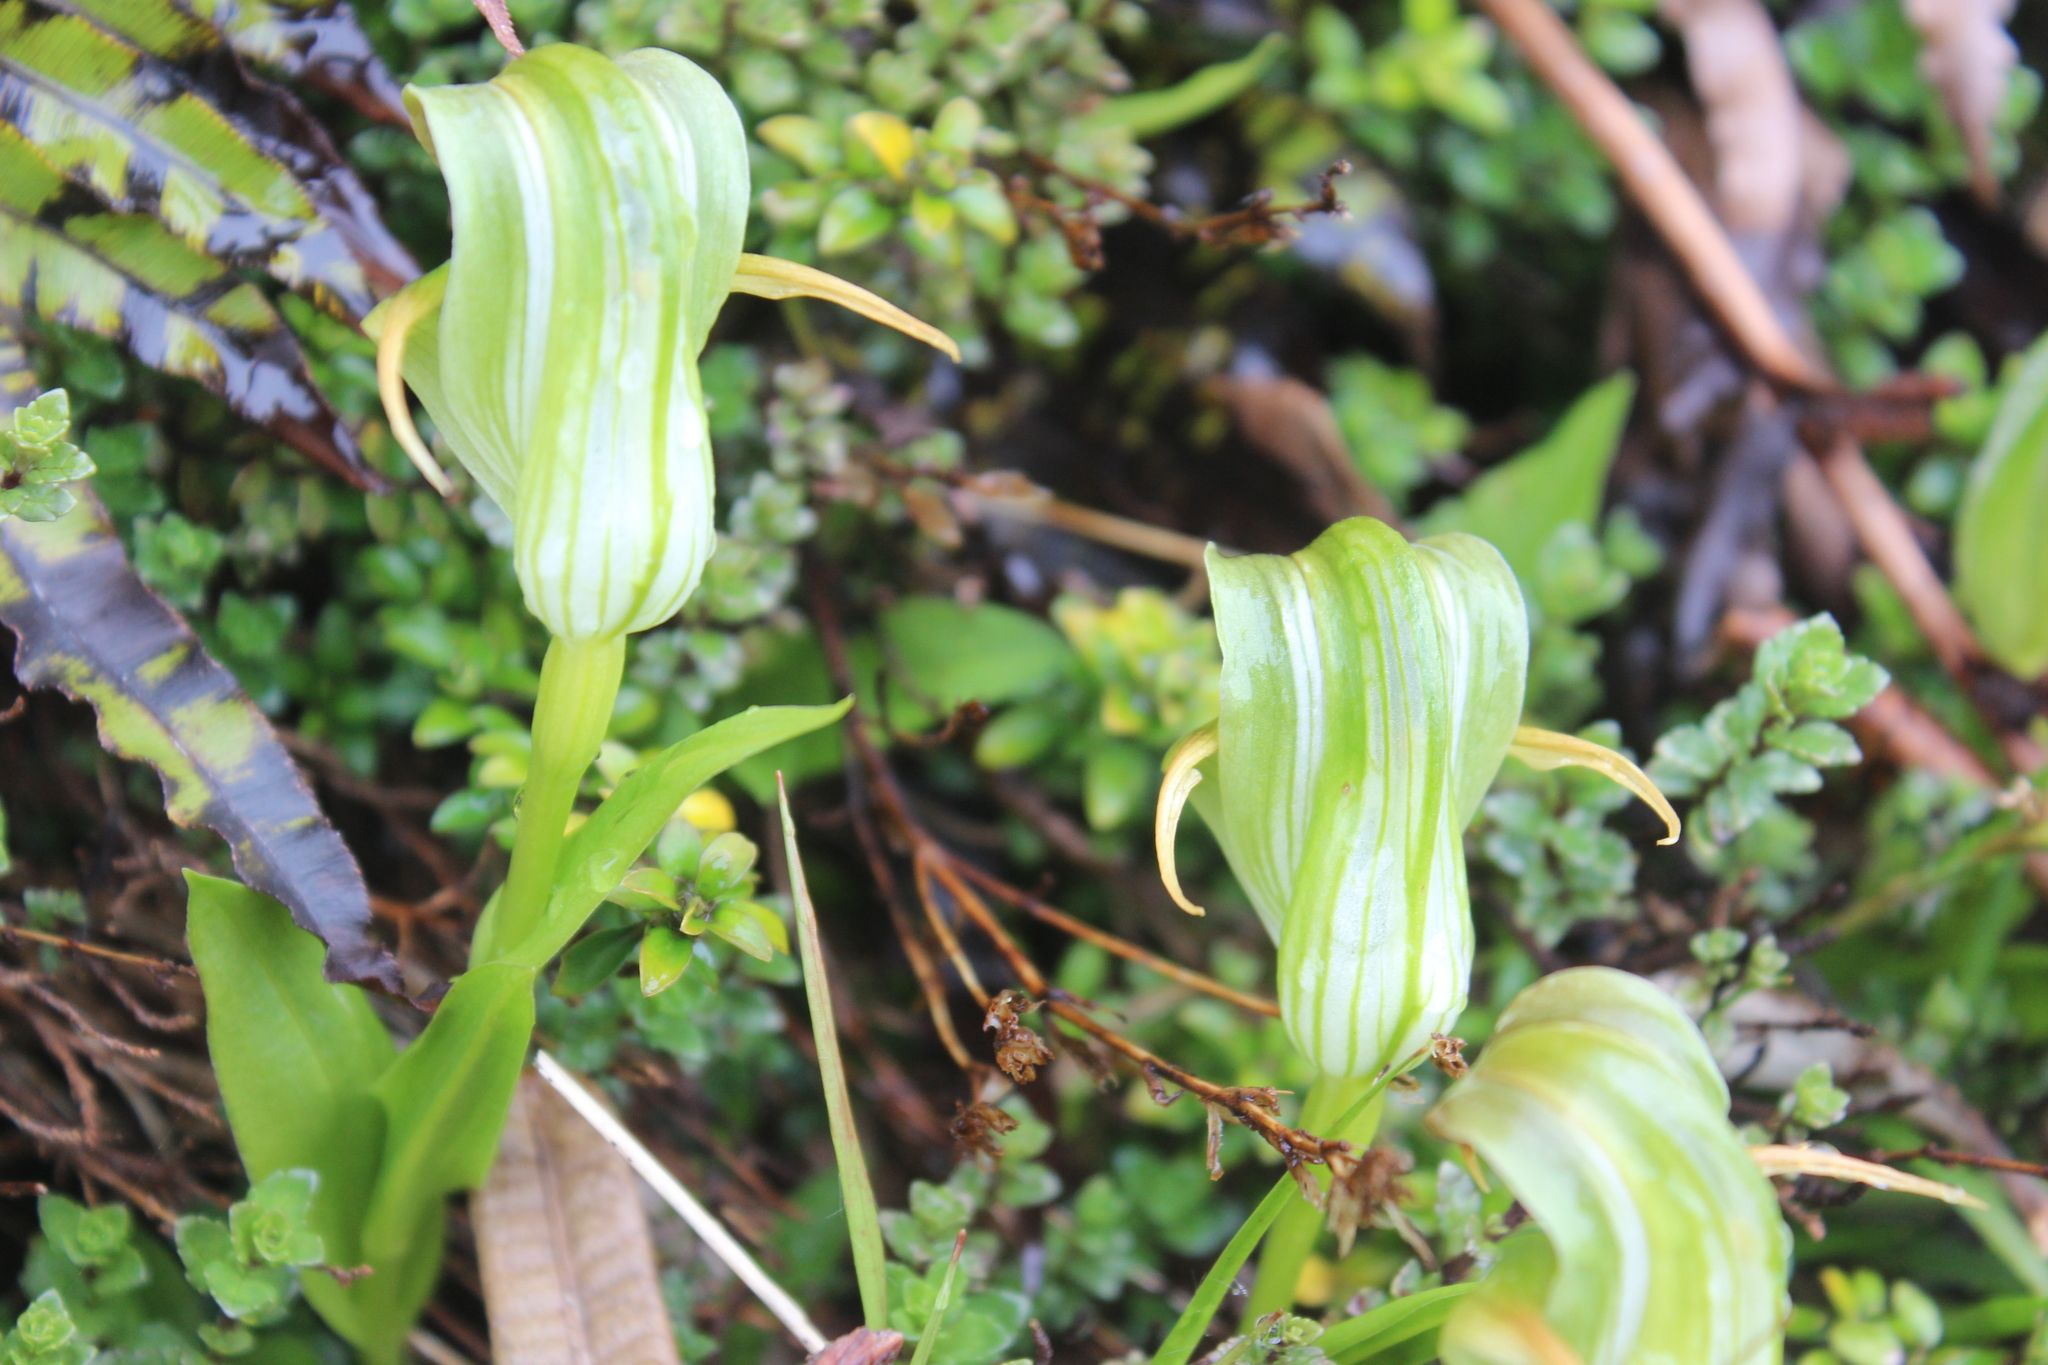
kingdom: Plantae
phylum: Tracheophyta
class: Liliopsida
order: Asparagales
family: Orchidaceae
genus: Pterostylis
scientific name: Pterostylis patens
